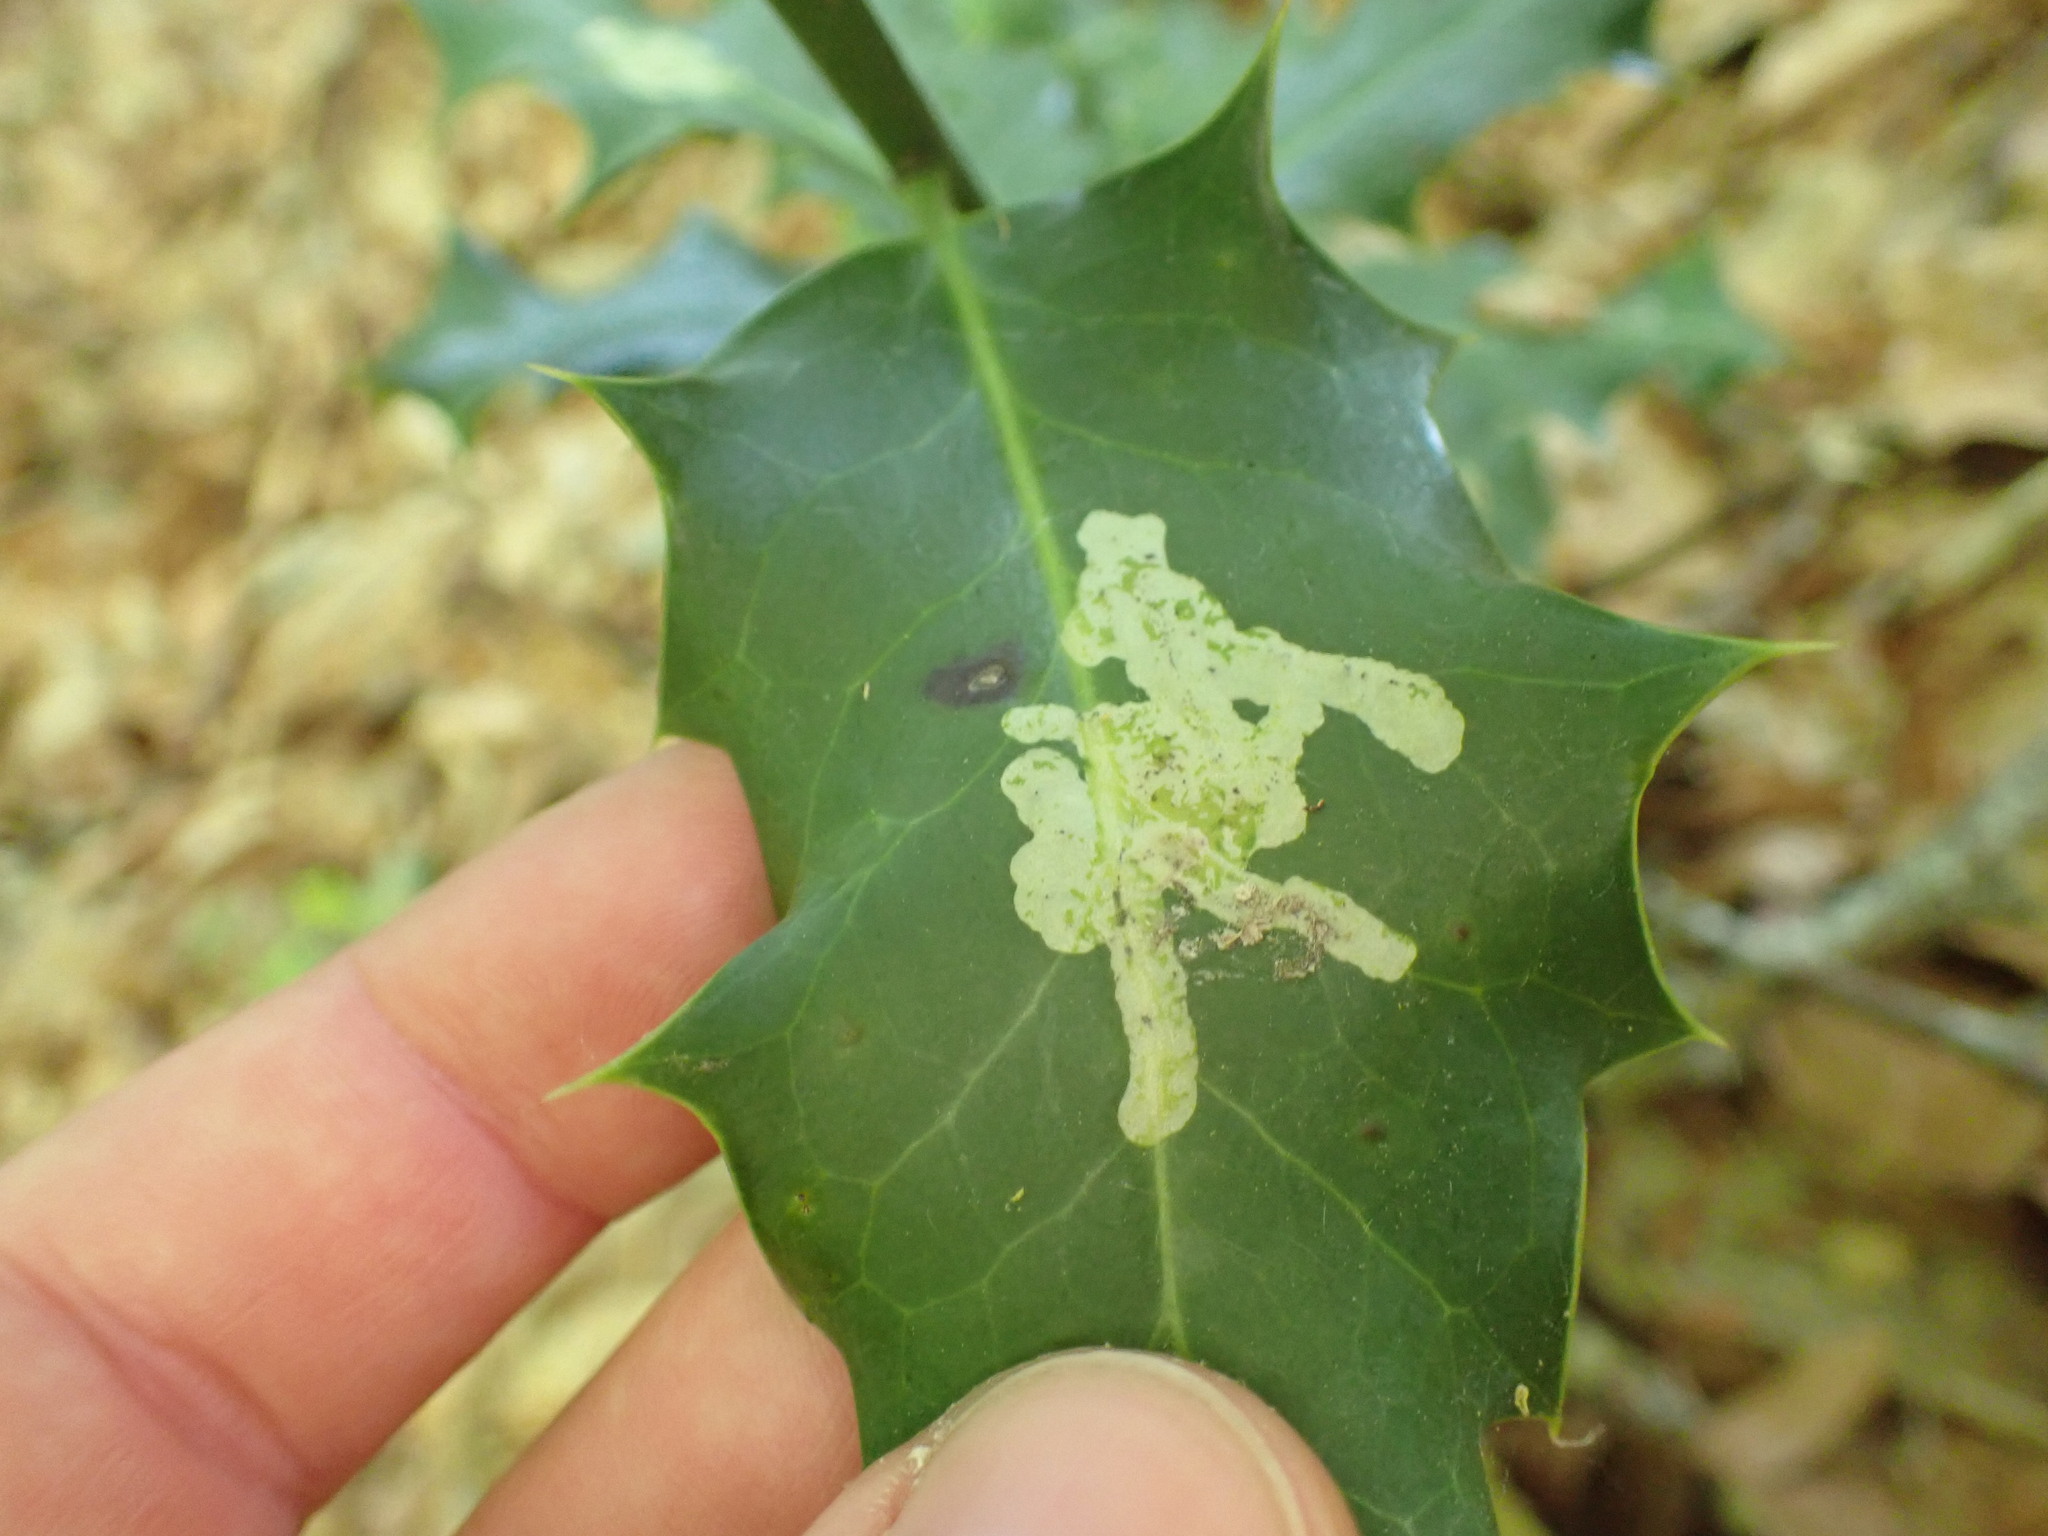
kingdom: Animalia
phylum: Arthropoda
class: Insecta
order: Diptera
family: Agromyzidae
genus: Phytomyza
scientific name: Phytomyza ilicis
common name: Holly leafminer
